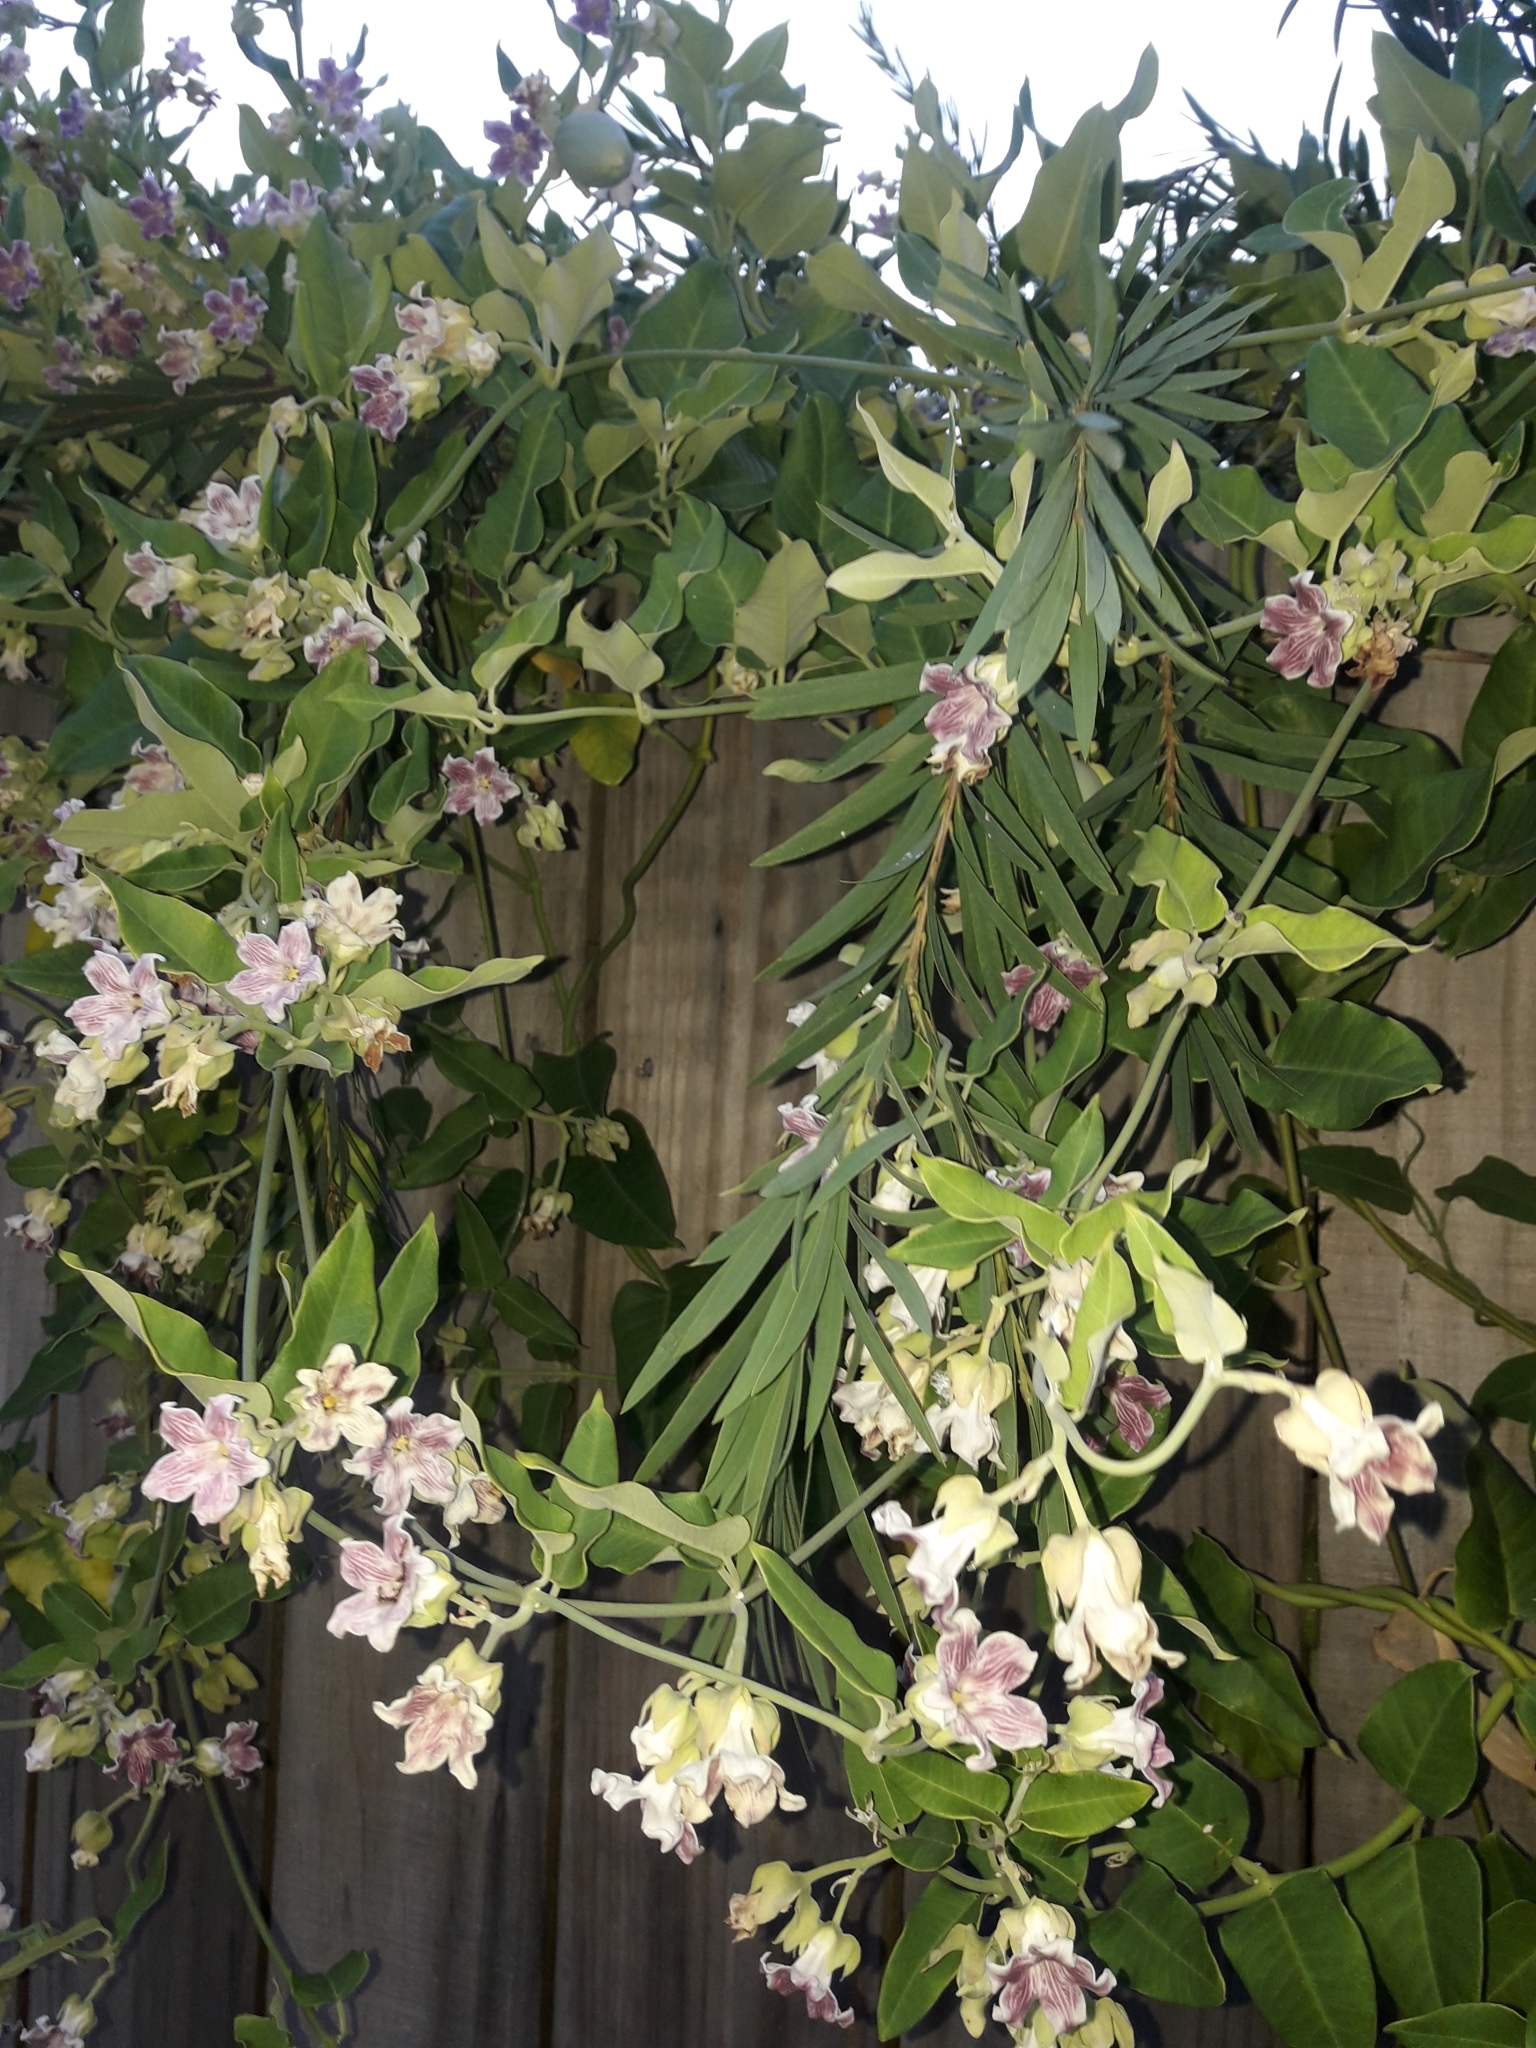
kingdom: Plantae
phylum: Tracheophyta
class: Magnoliopsida
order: Gentianales
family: Apocynaceae
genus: Araujia
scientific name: Araujia sericifera
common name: White bladderflower
